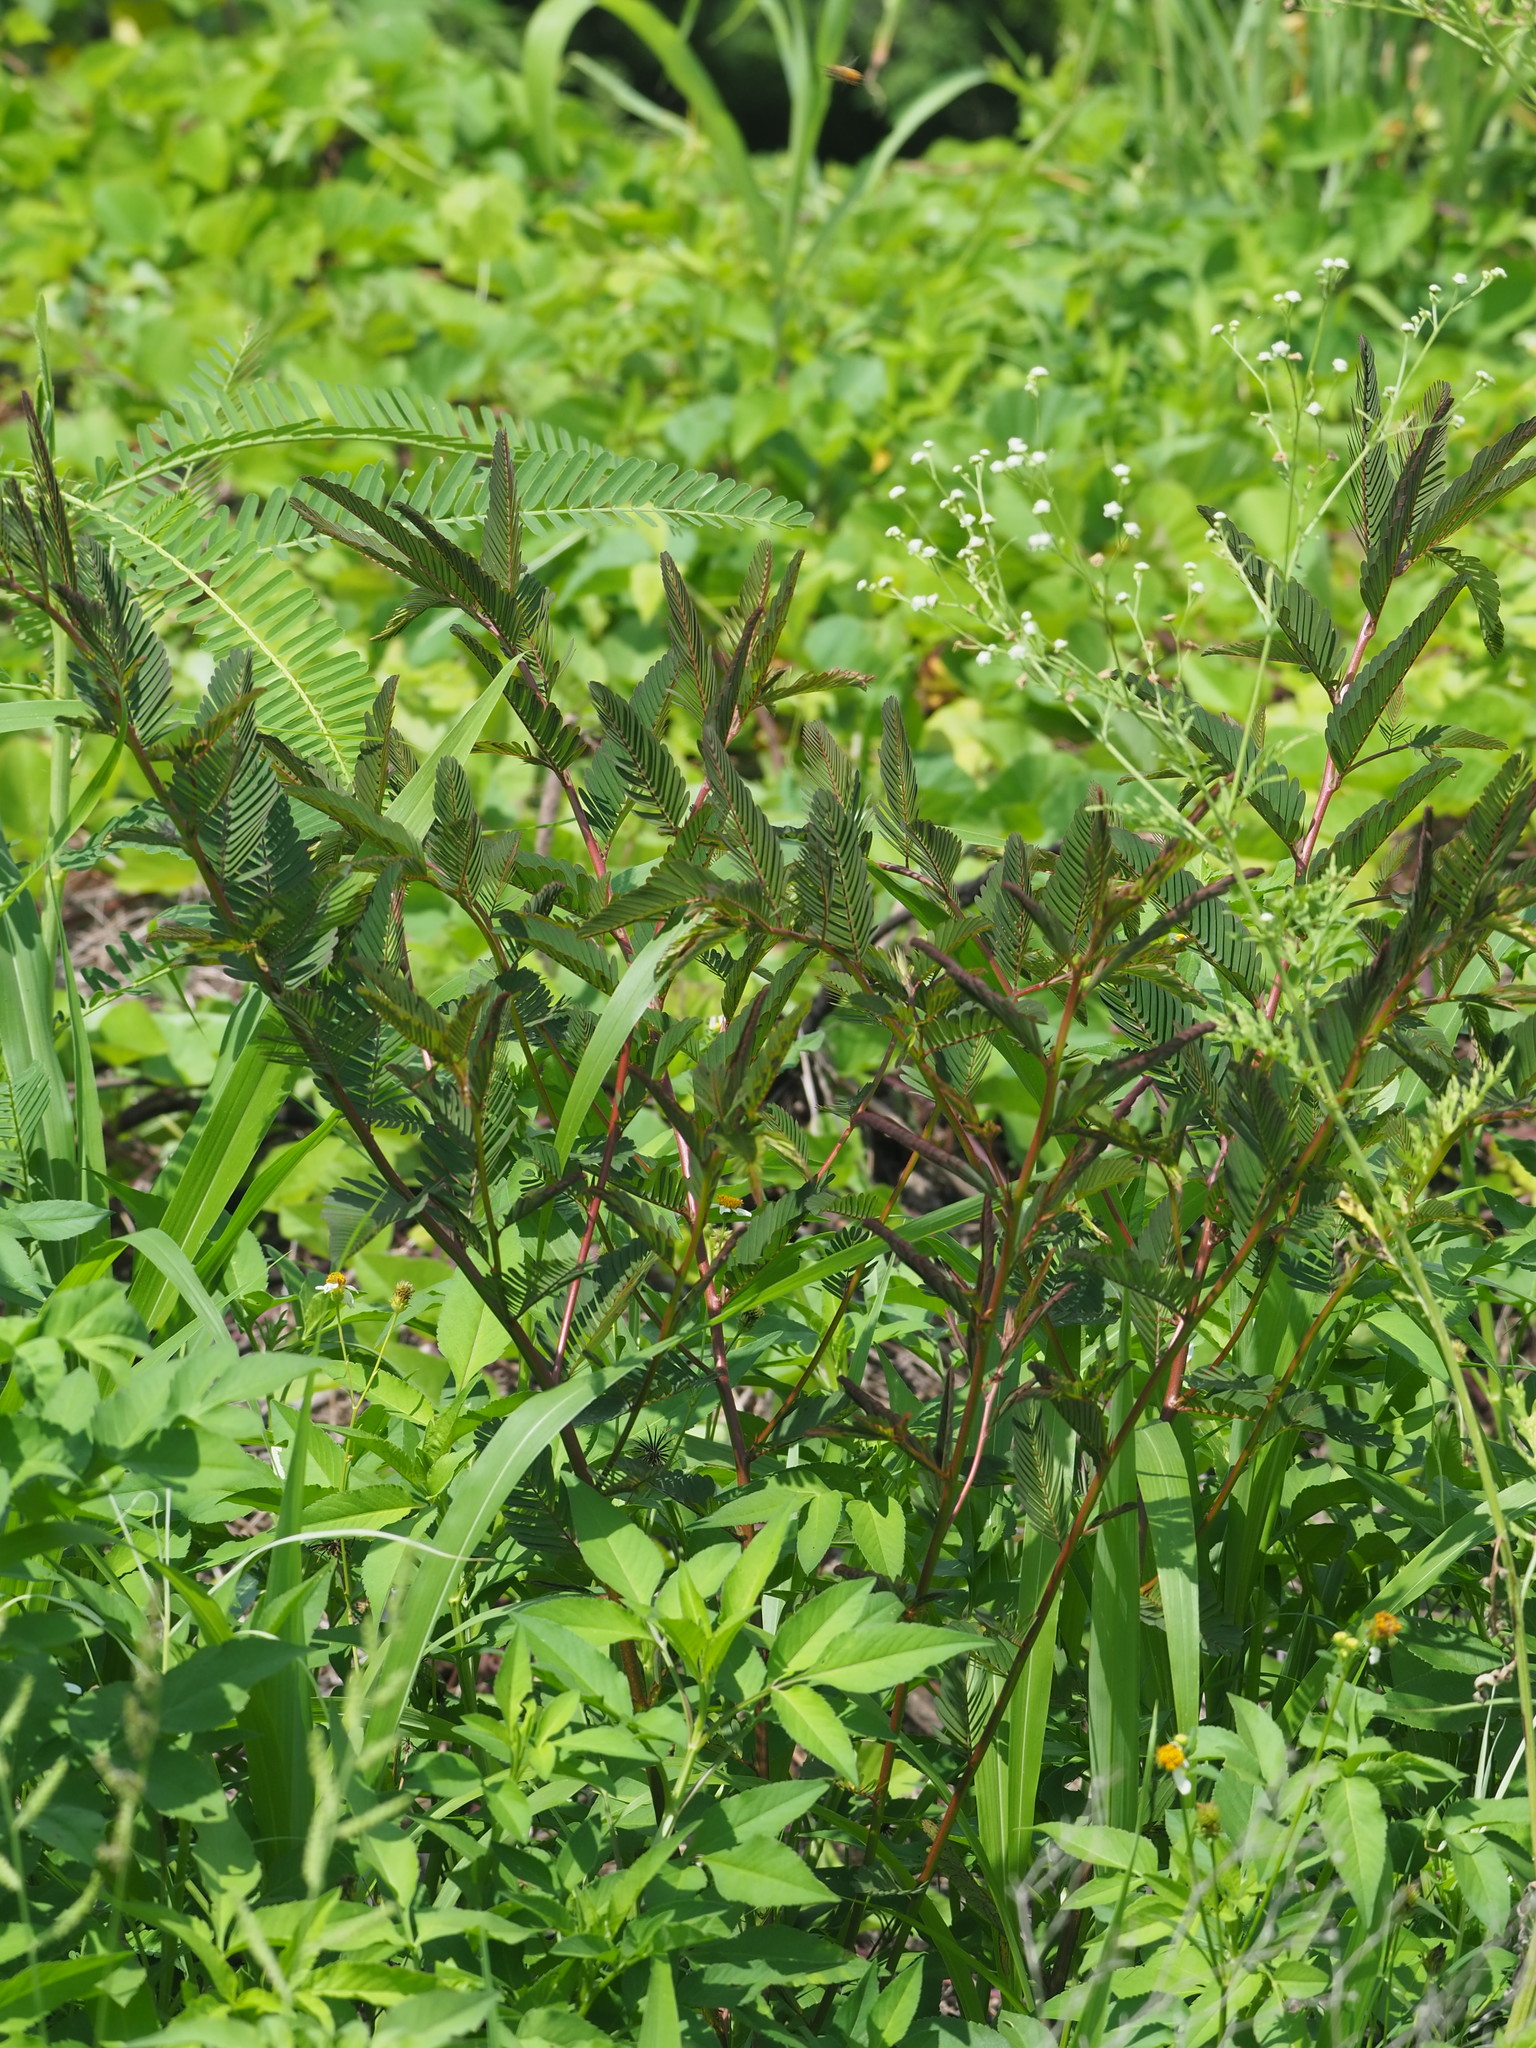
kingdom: Plantae
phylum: Tracheophyta
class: Magnoliopsida
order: Fabales
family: Fabaceae
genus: Chamaecrista
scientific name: Chamaecrista nictitans
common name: Sensitive cassia
